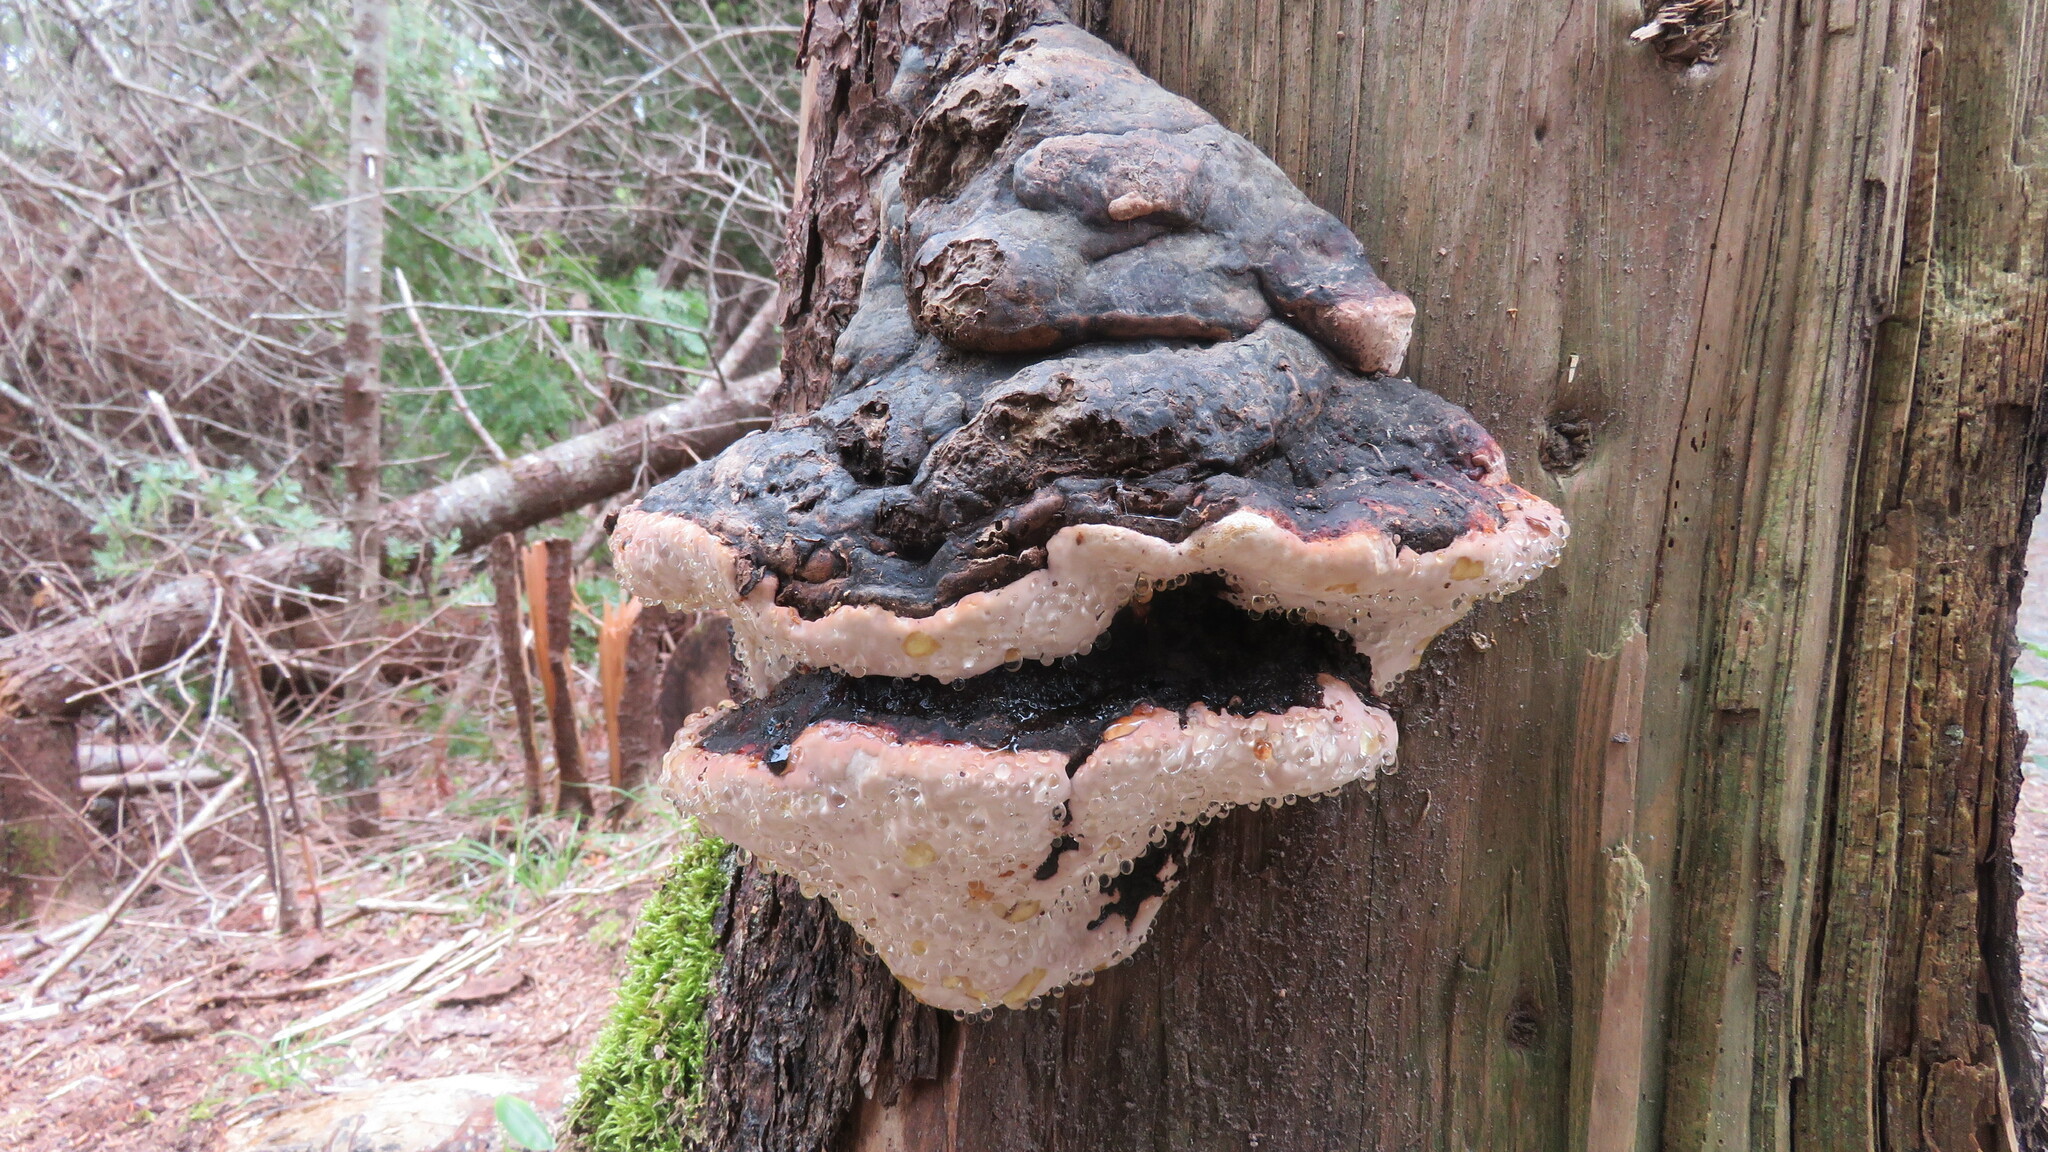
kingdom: Fungi
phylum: Basidiomycota
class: Agaricomycetes
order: Polyporales
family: Fomitopsidaceae
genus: Fomitopsis
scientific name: Fomitopsis mounceae
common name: Northern red belt
